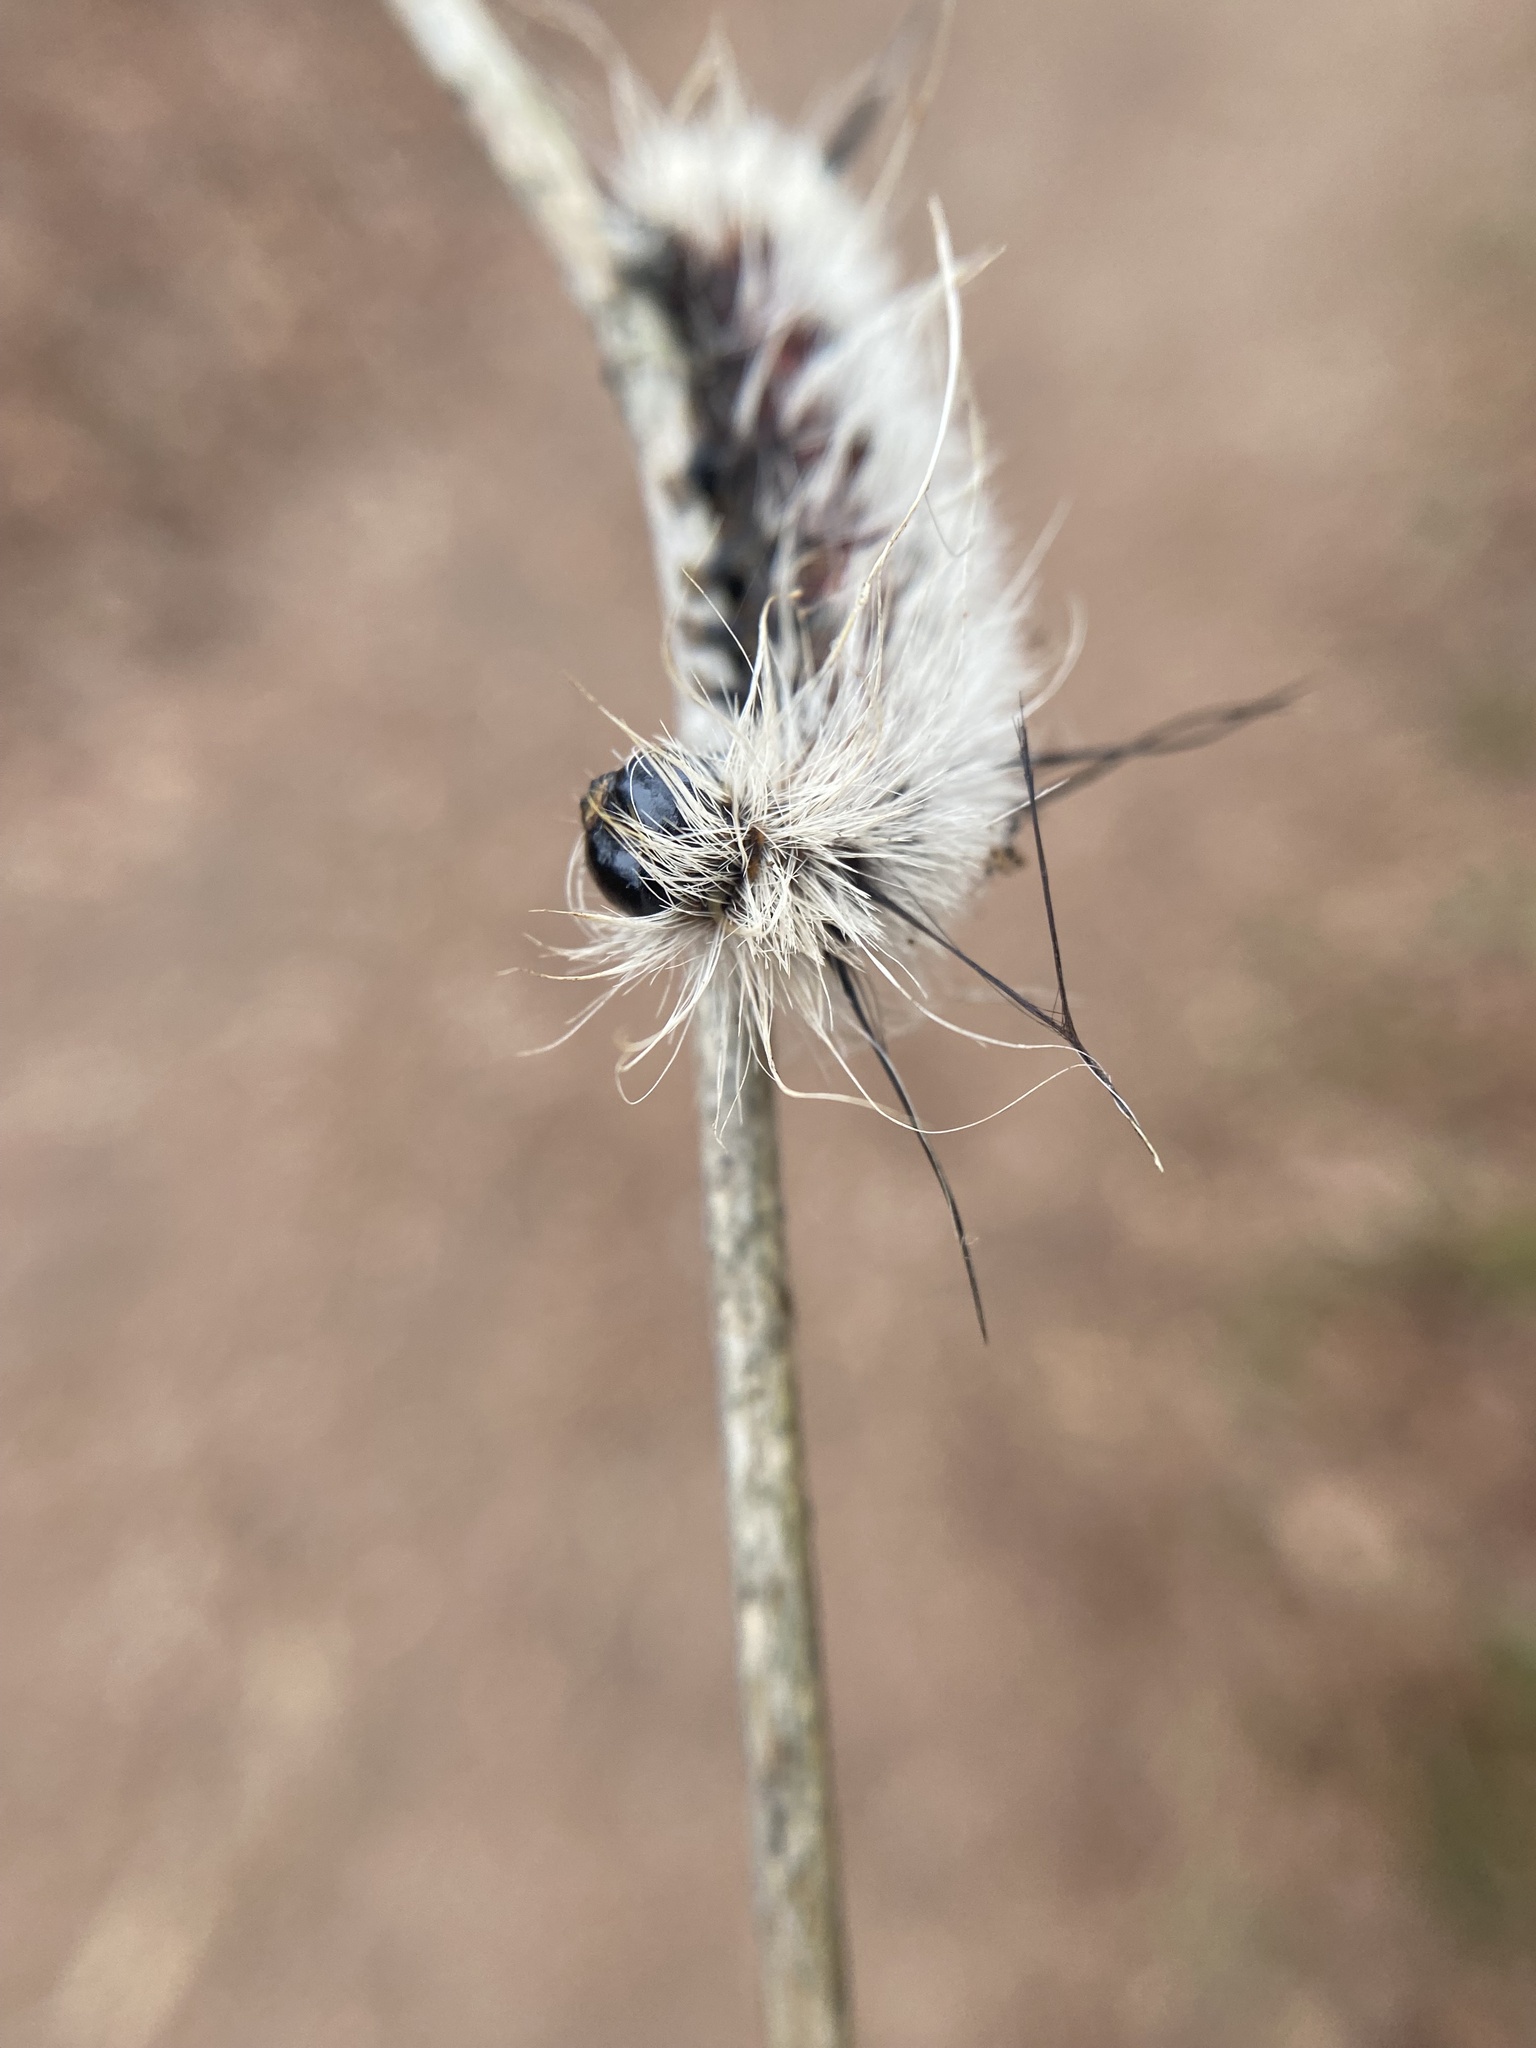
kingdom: Animalia
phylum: Arthropoda
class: Insecta
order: Lepidoptera
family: Noctuidae
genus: Acronicta
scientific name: Acronicta americana
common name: American dagger
